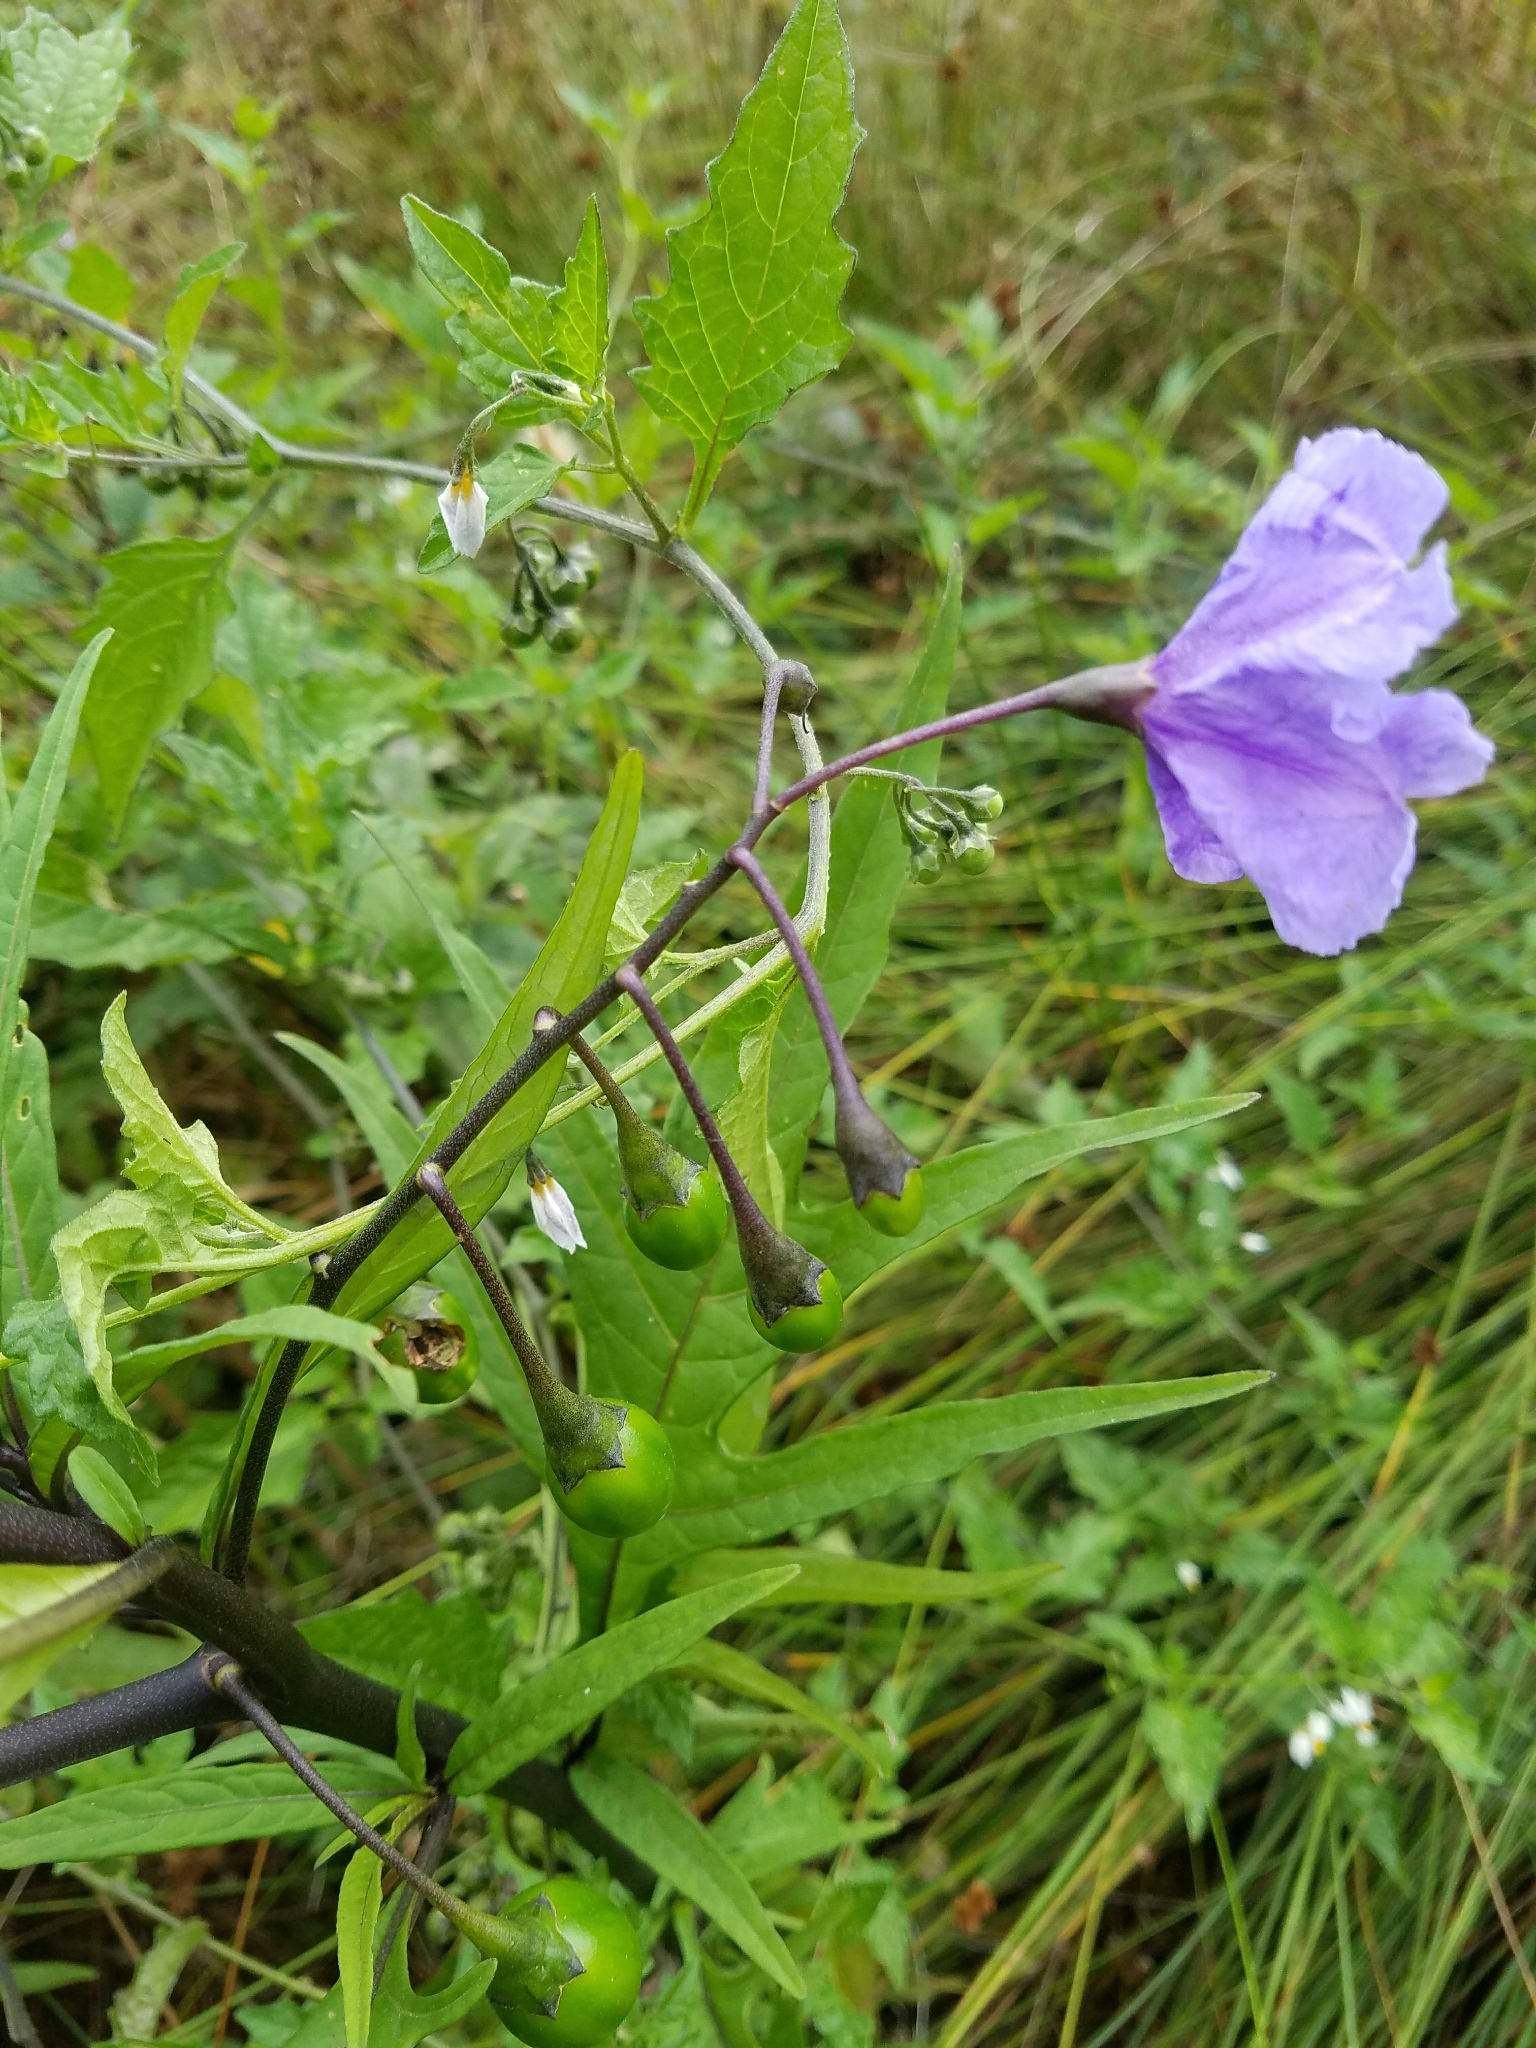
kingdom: Plantae
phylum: Tracheophyta
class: Magnoliopsida
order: Solanales
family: Solanaceae
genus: Solanum
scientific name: Solanum laciniatum
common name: Kangaroo-apple
